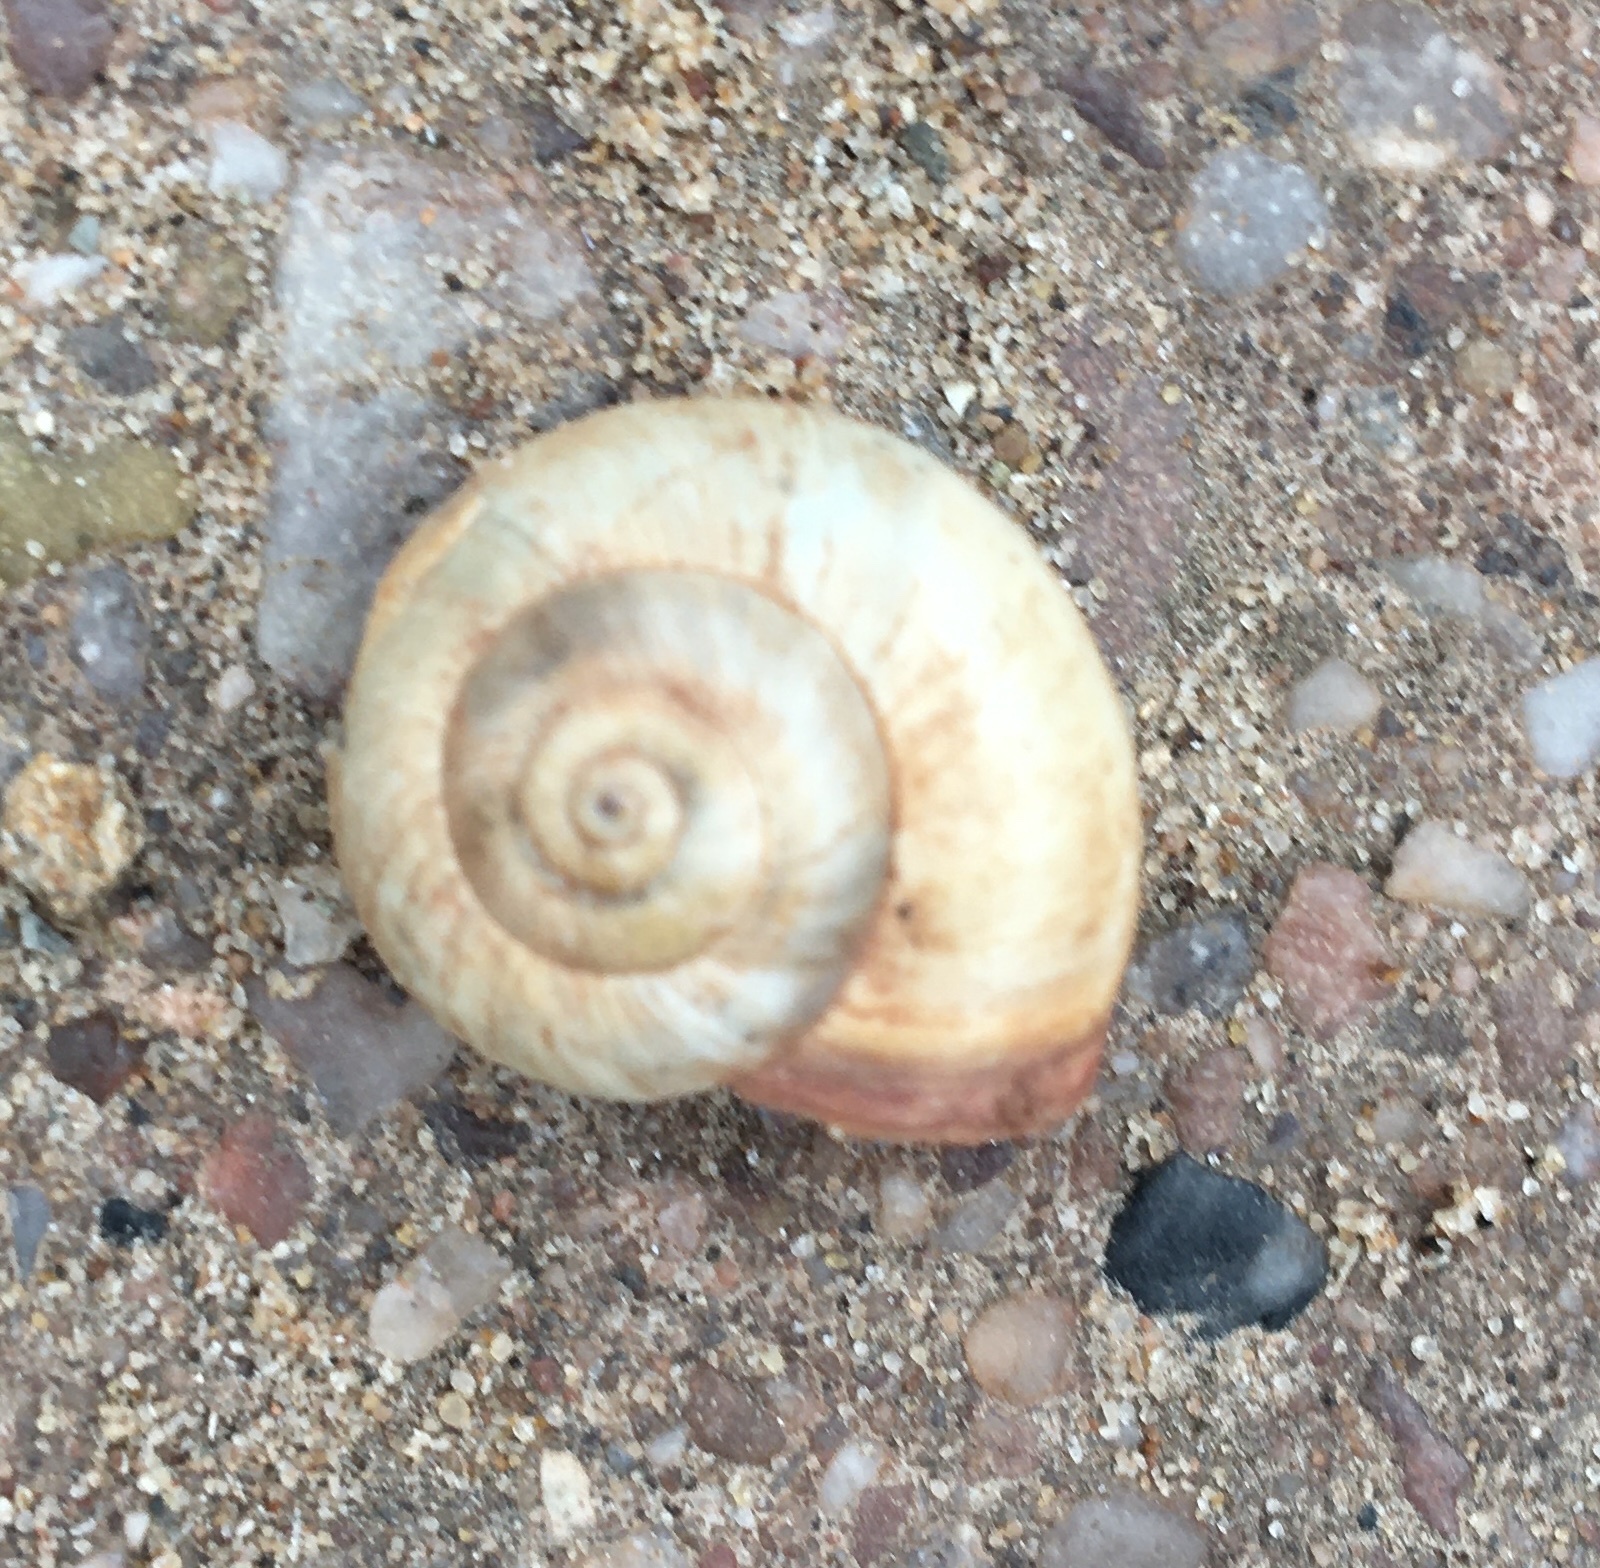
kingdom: Animalia
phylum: Mollusca
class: Gastropoda
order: Stylommatophora
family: Hygromiidae
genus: Monacha
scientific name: Monacha cantiana
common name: Kentish snail
